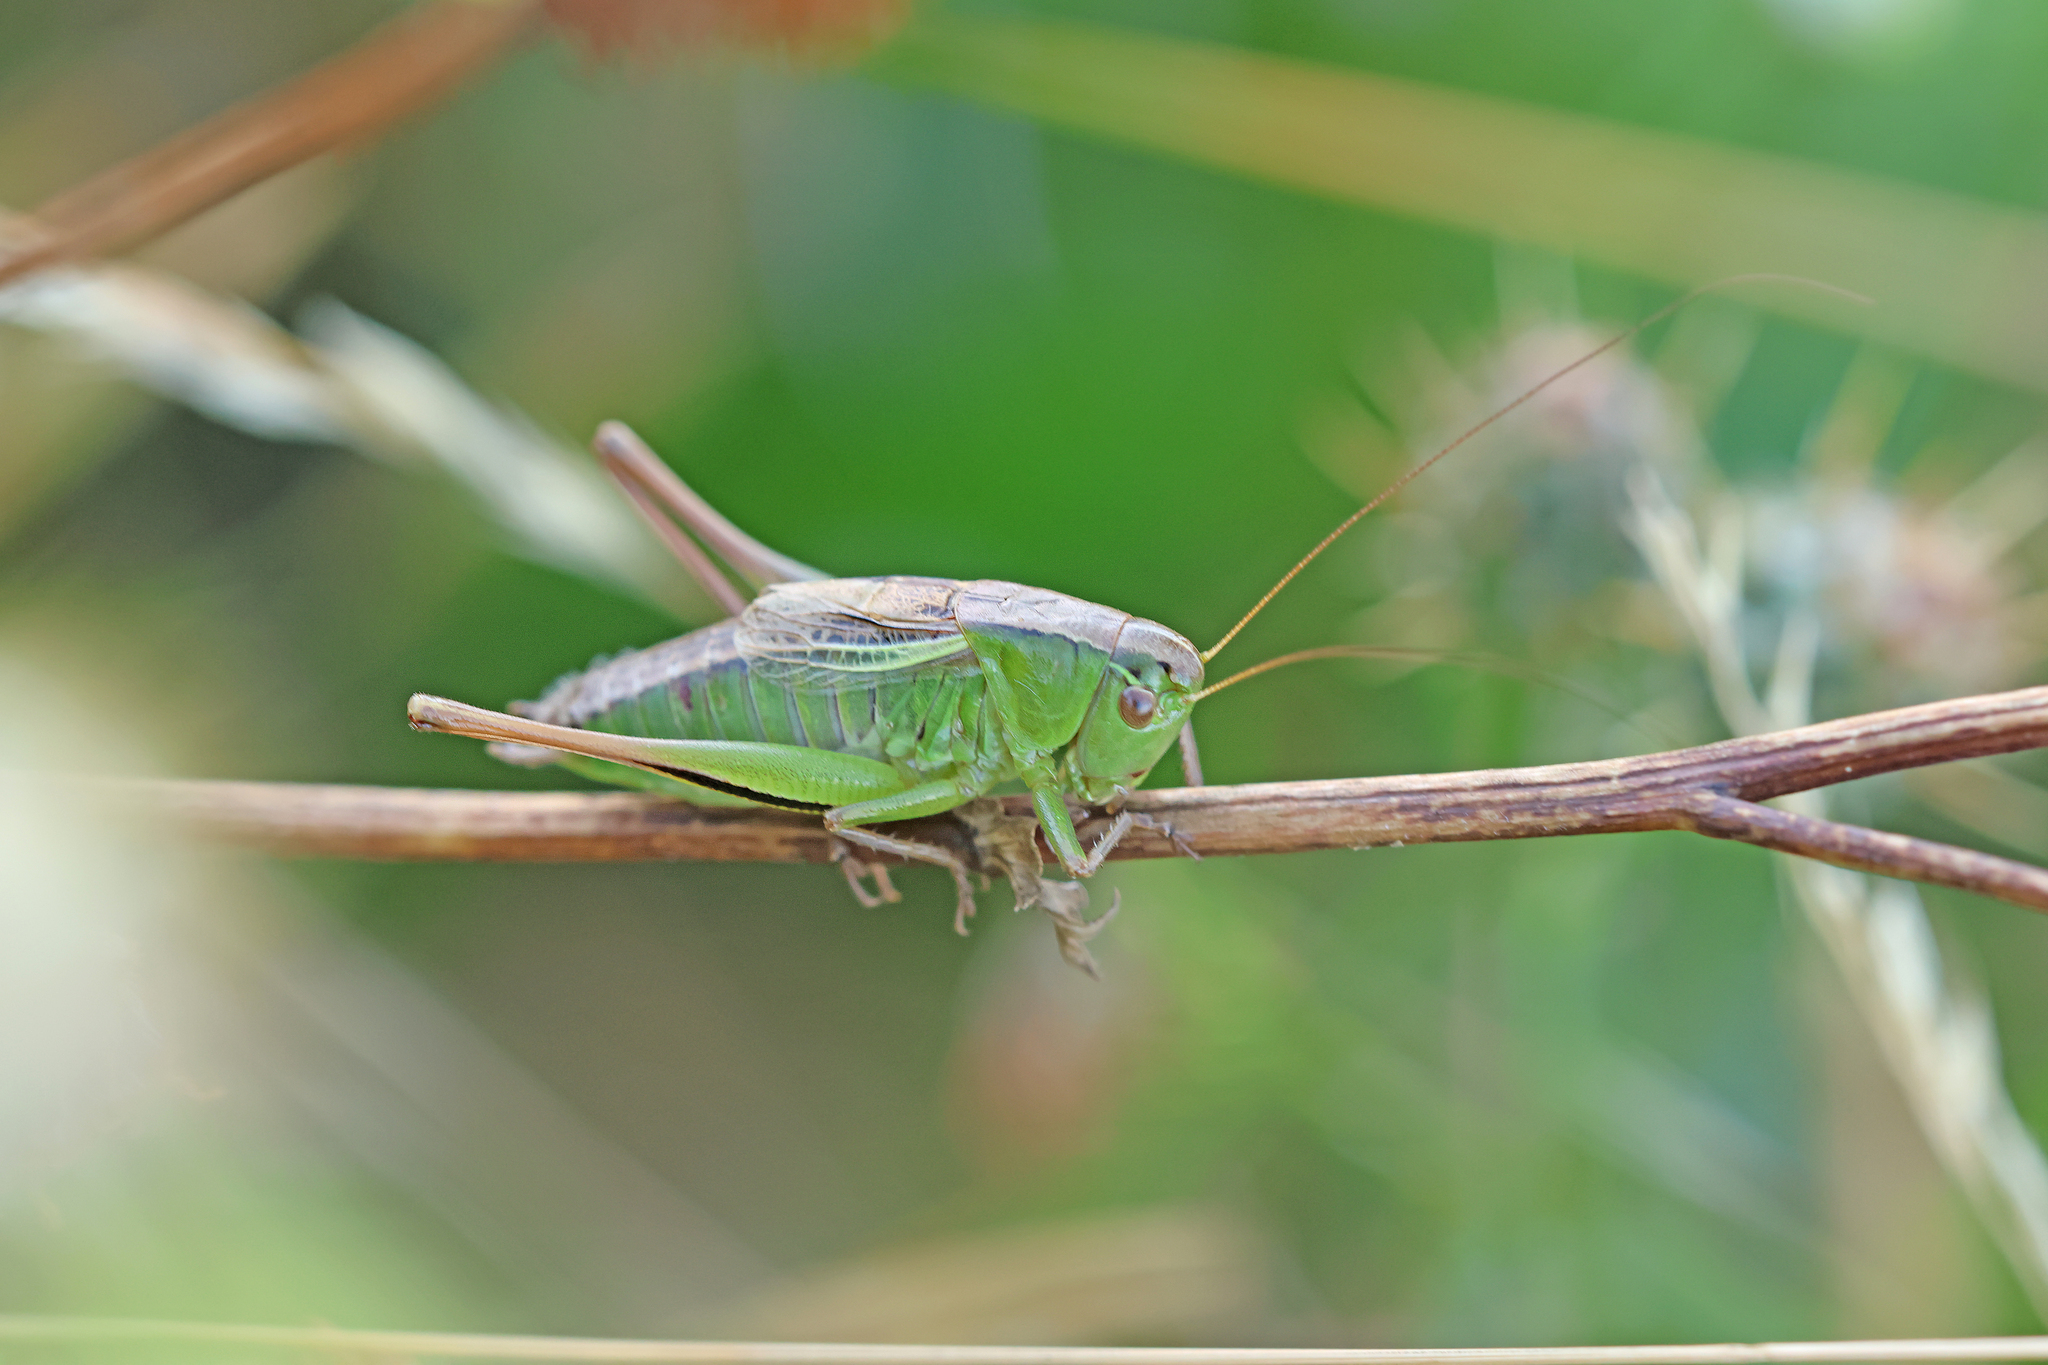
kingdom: Animalia
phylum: Arthropoda
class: Insecta
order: Orthoptera
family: Tettigoniidae
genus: Bicolorana
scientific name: Bicolorana kraussi
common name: Croatian meadow bush-cricket
